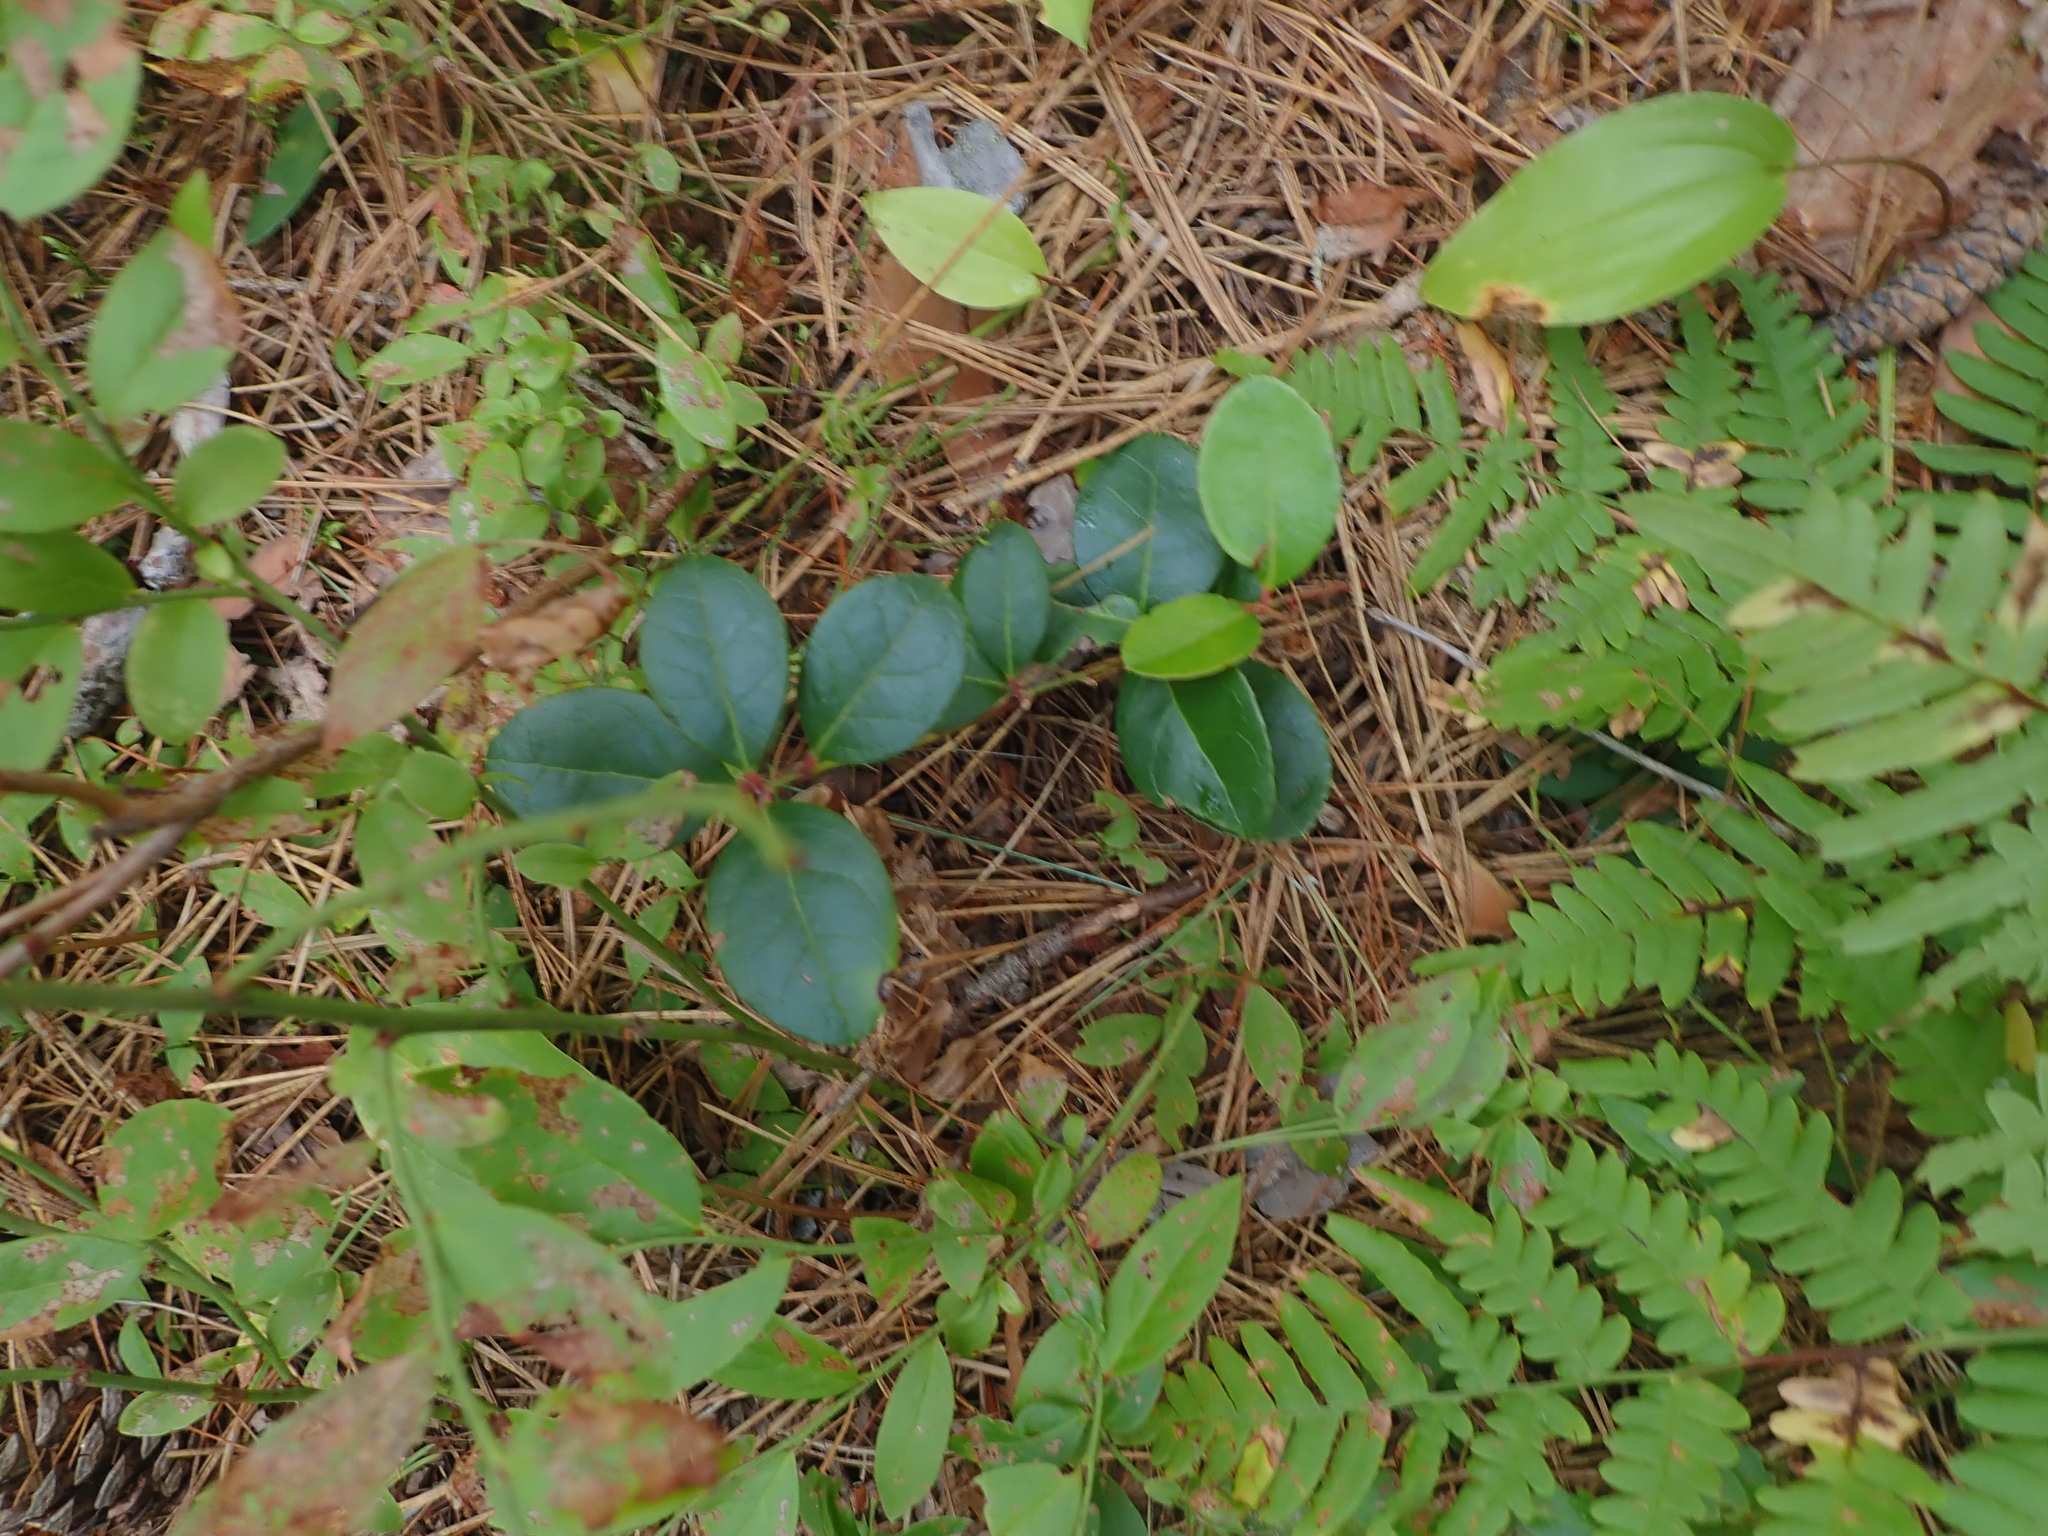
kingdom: Plantae
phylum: Tracheophyta
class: Magnoliopsida
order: Ericales
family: Ericaceae
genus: Gaultheria
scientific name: Gaultheria procumbens
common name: Checkerberry
